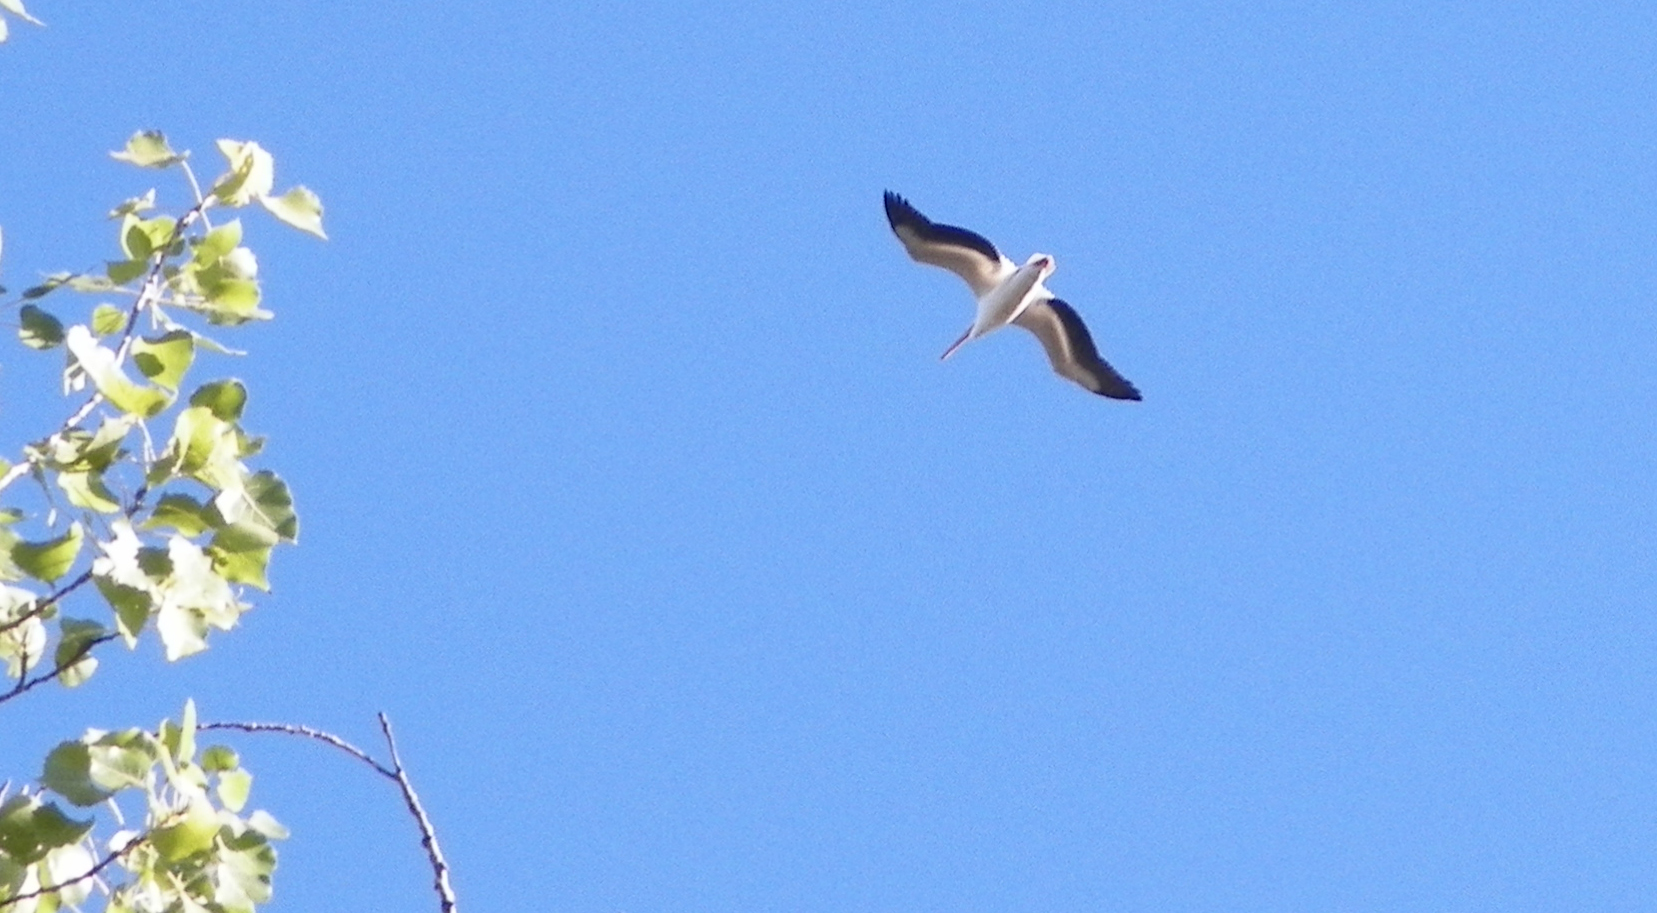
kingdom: Animalia
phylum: Chordata
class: Aves
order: Pelecaniformes
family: Pelecanidae
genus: Pelecanus
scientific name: Pelecanus erythrorhynchos
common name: American white pelican
